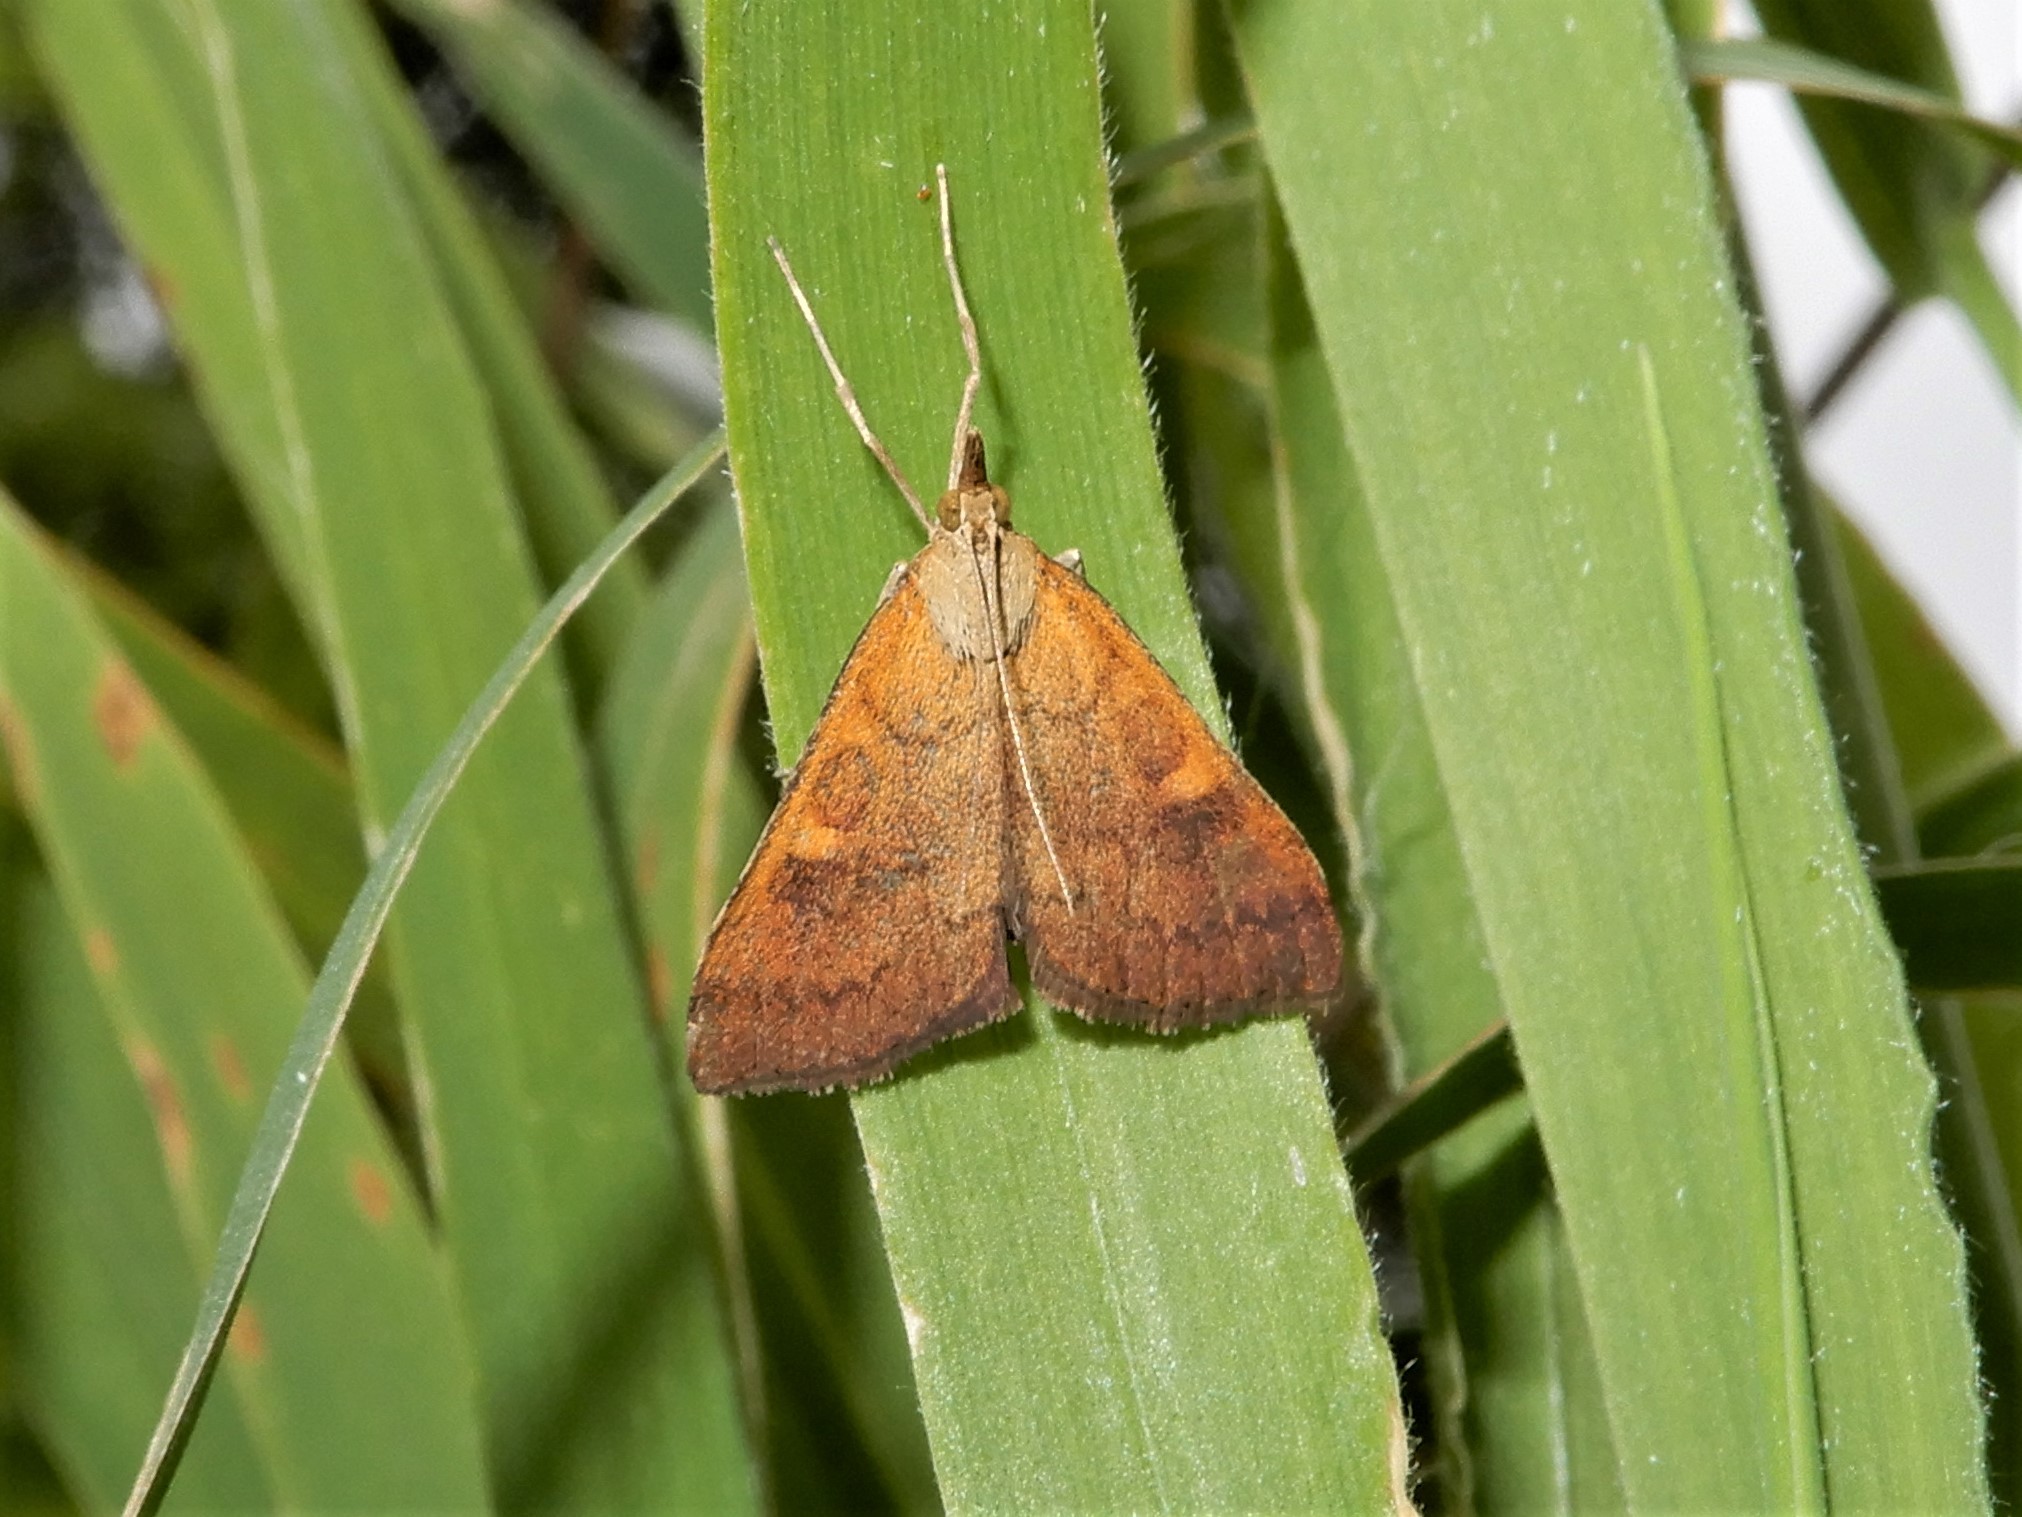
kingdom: Animalia
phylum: Arthropoda
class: Insecta
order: Lepidoptera
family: Crambidae
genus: Udea
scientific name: Udea Mnesictena flavidalis
